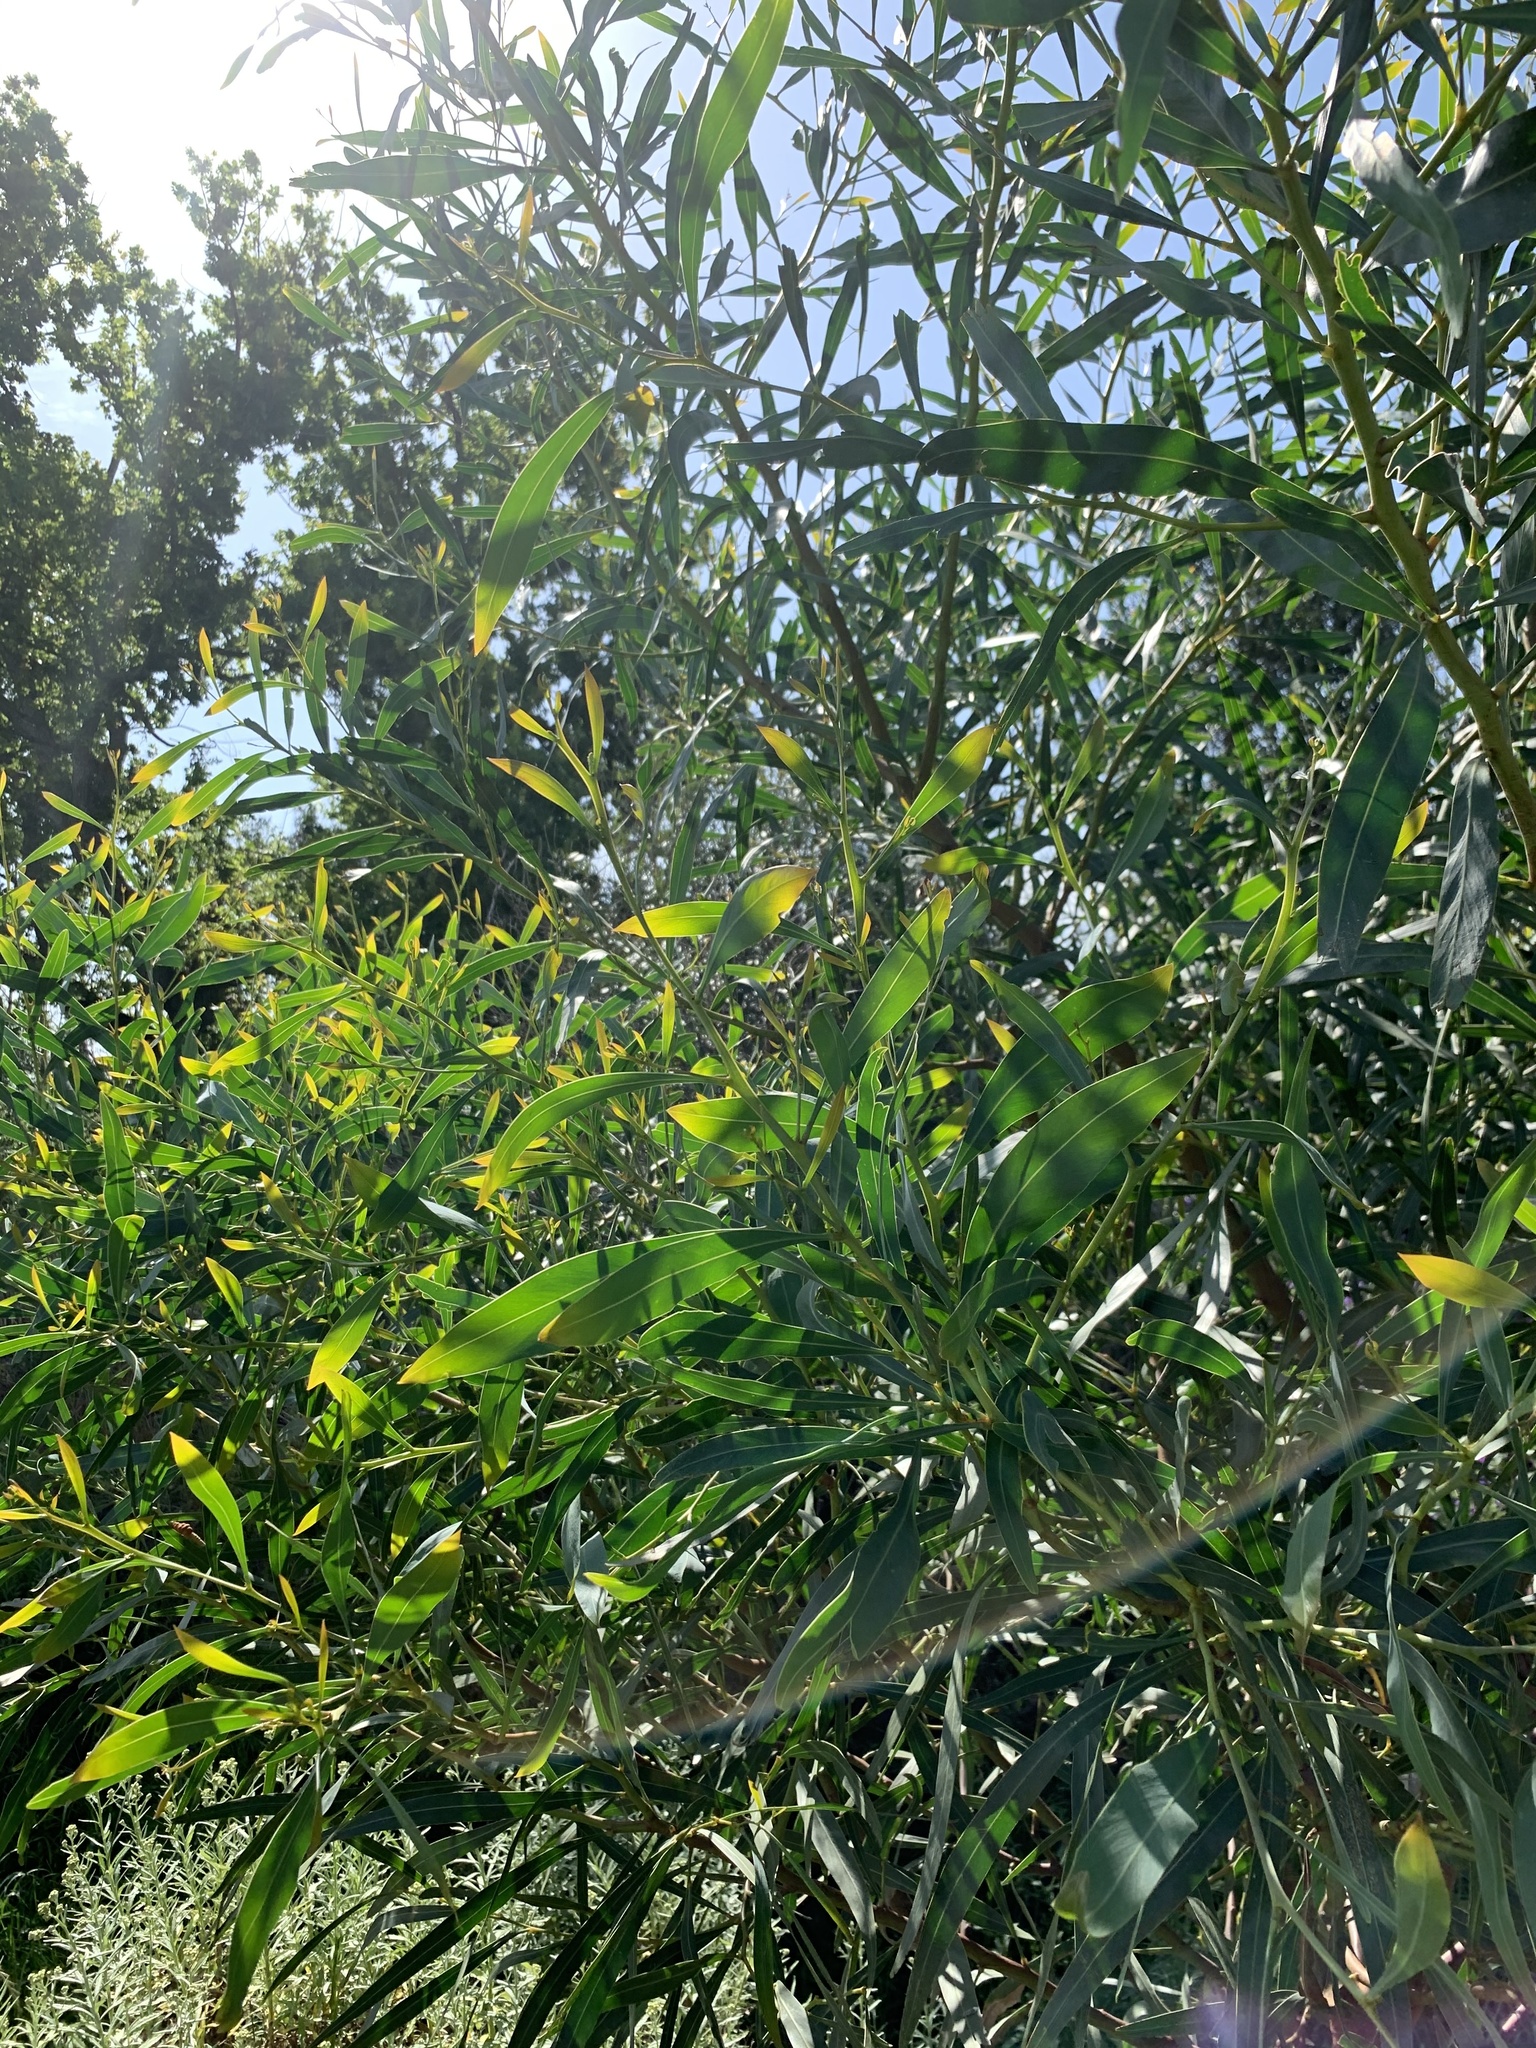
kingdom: Plantae
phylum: Tracheophyta
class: Magnoliopsida
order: Fabales
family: Fabaceae
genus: Acacia
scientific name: Acacia saligna
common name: Orange wattle
